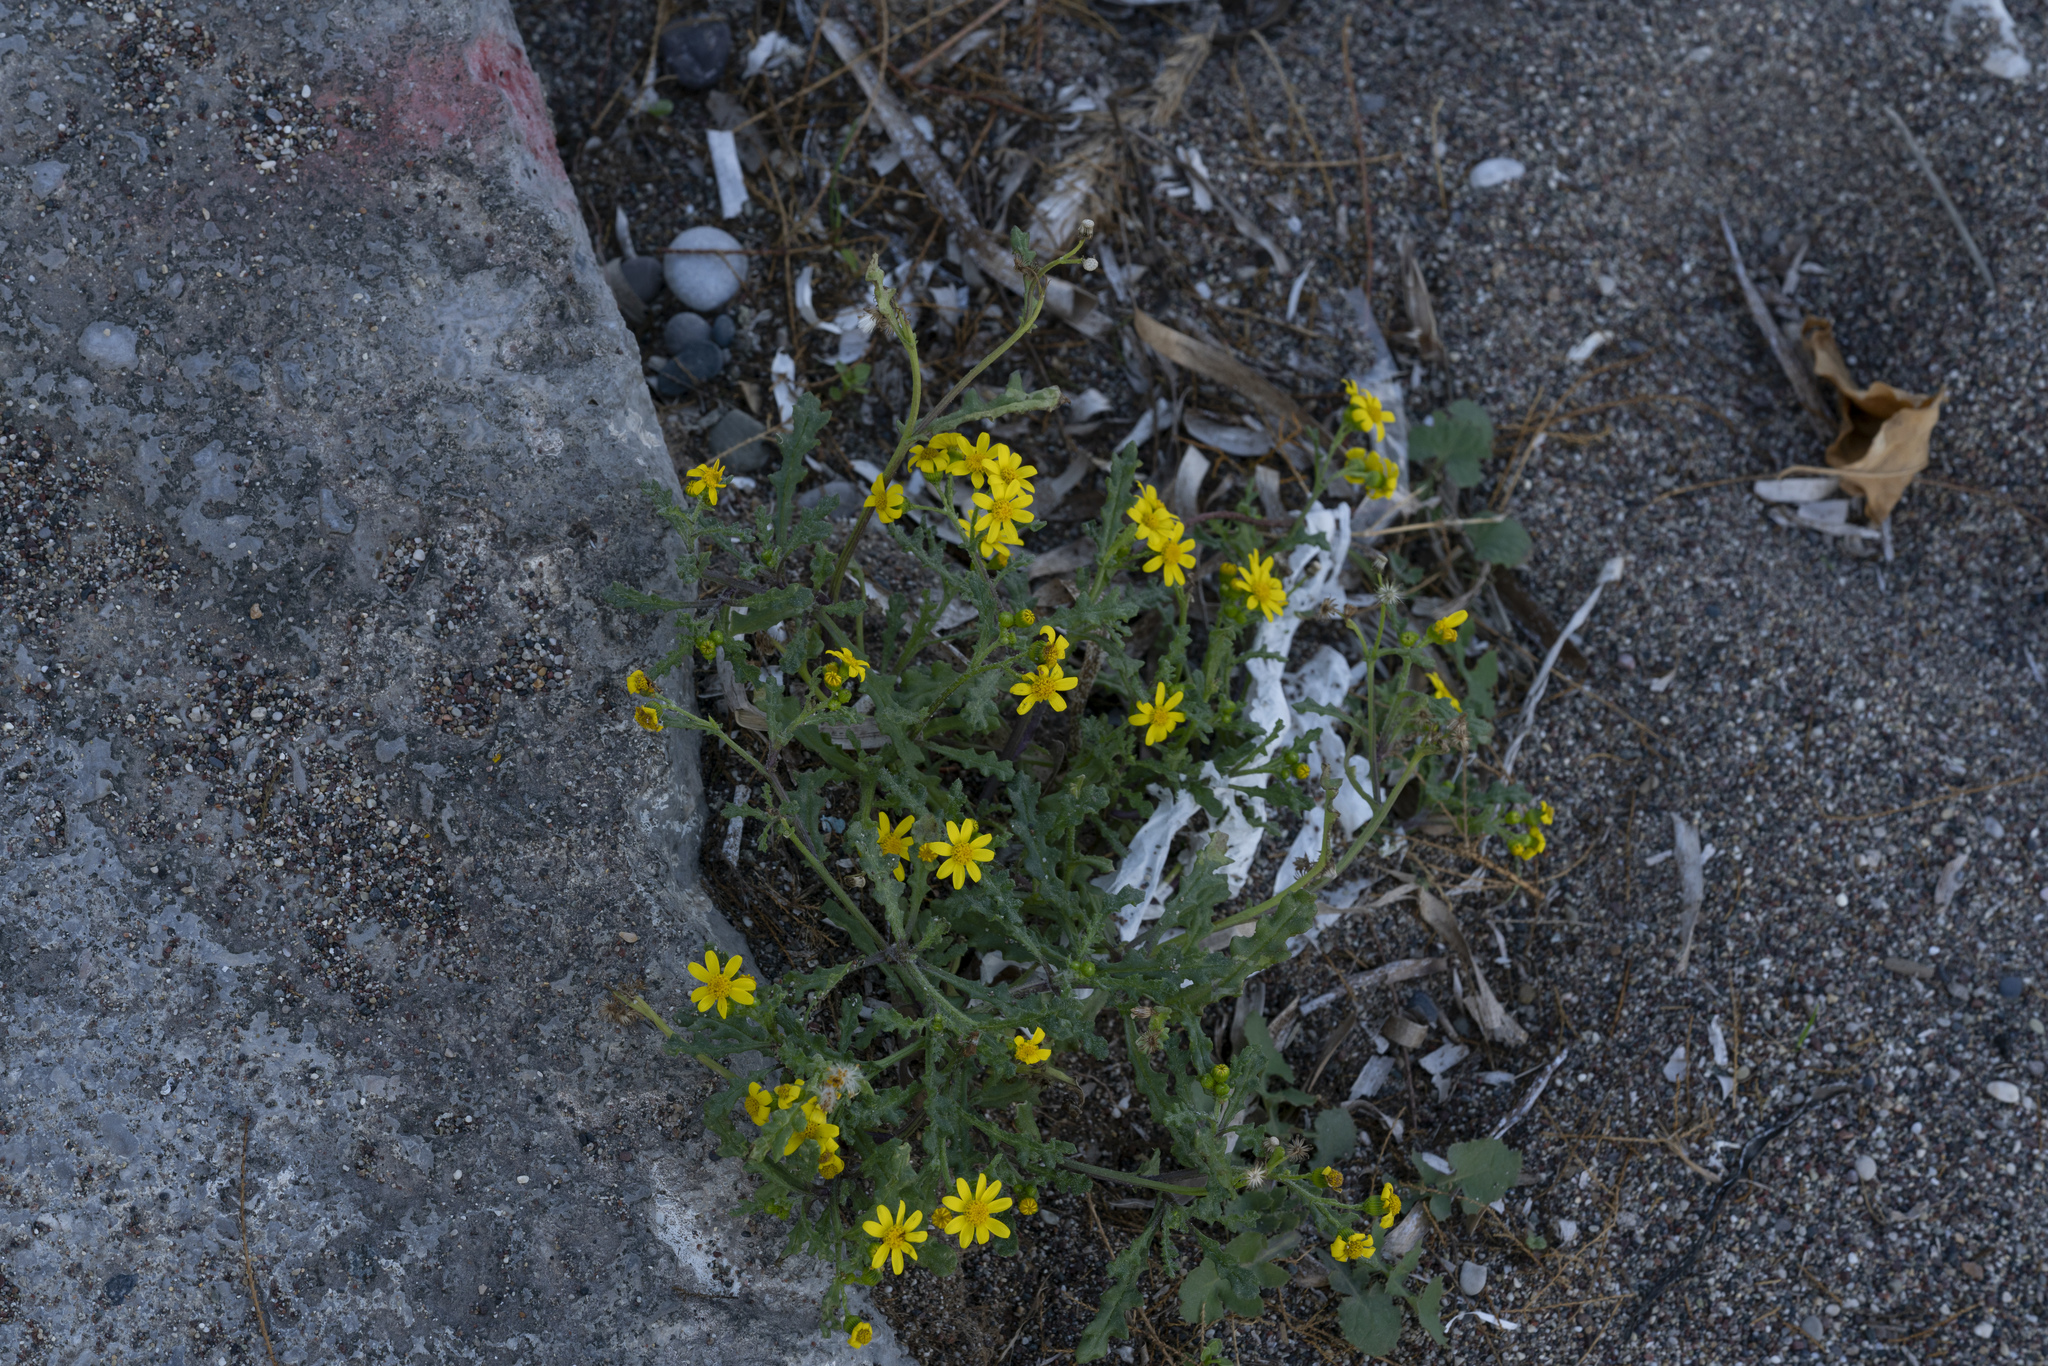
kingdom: Plantae
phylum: Tracheophyta
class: Magnoliopsida
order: Asterales
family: Asteraceae
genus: Senecio
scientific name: Senecio vernalis
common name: Eastern groundsel
